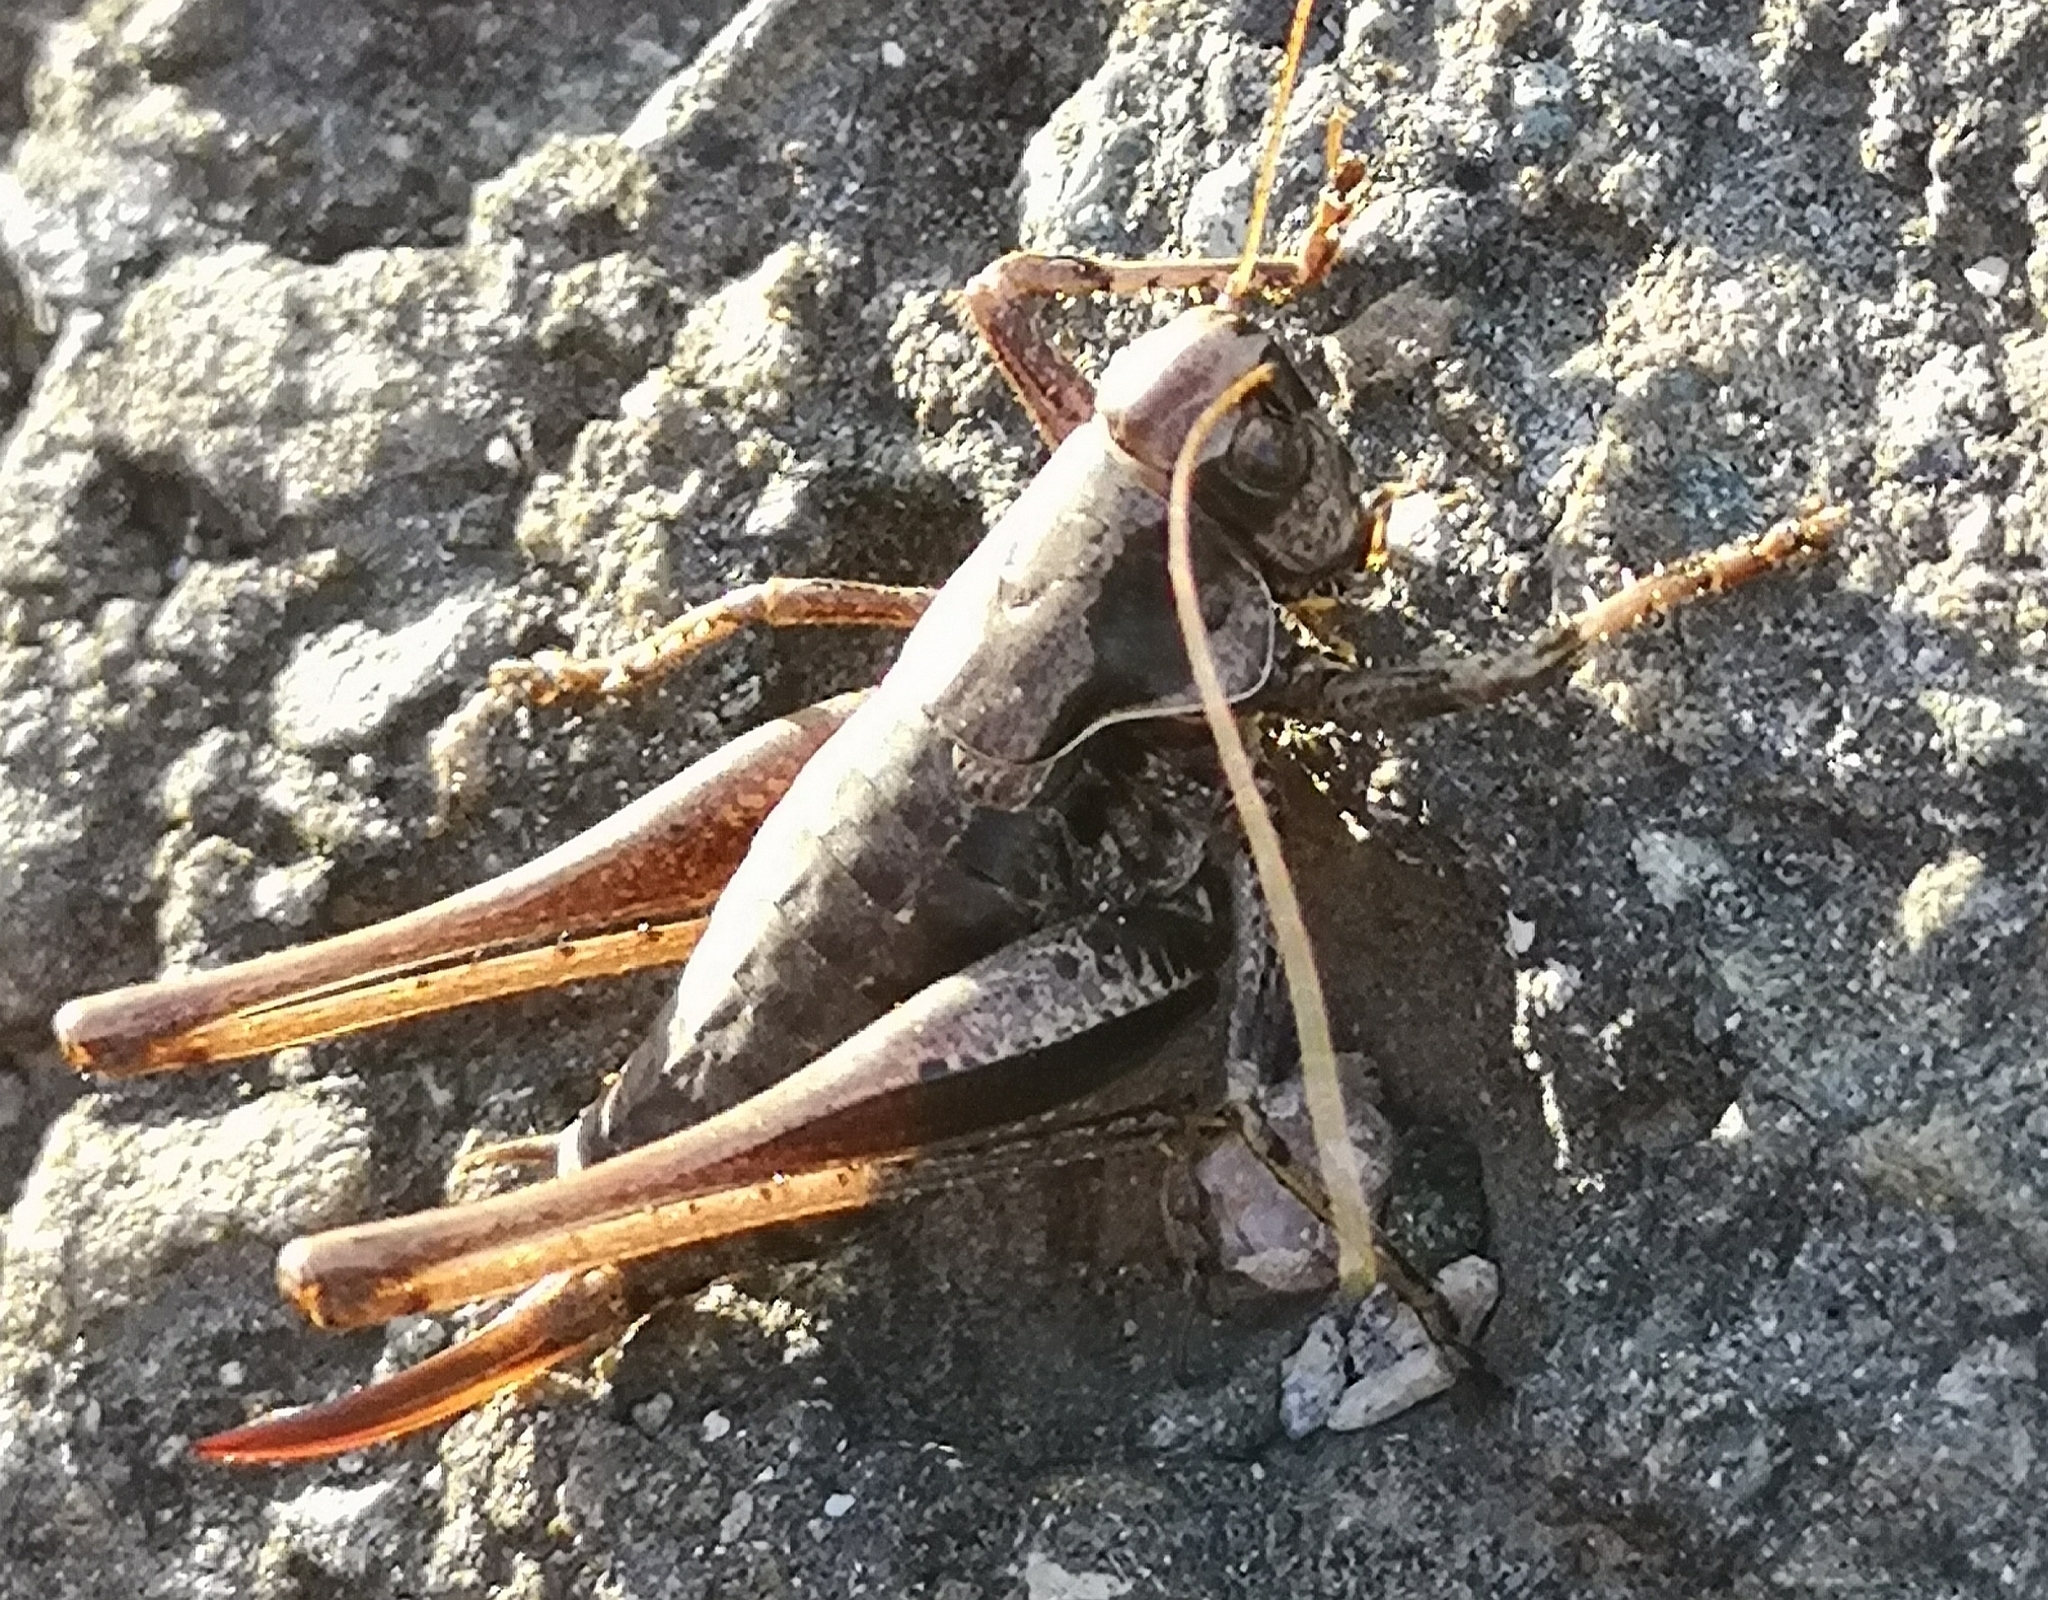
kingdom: Animalia
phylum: Arthropoda
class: Insecta
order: Orthoptera
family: Tettigoniidae
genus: Pholidoptera
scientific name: Pholidoptera griseoaptera
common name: Dark bush-cricket
